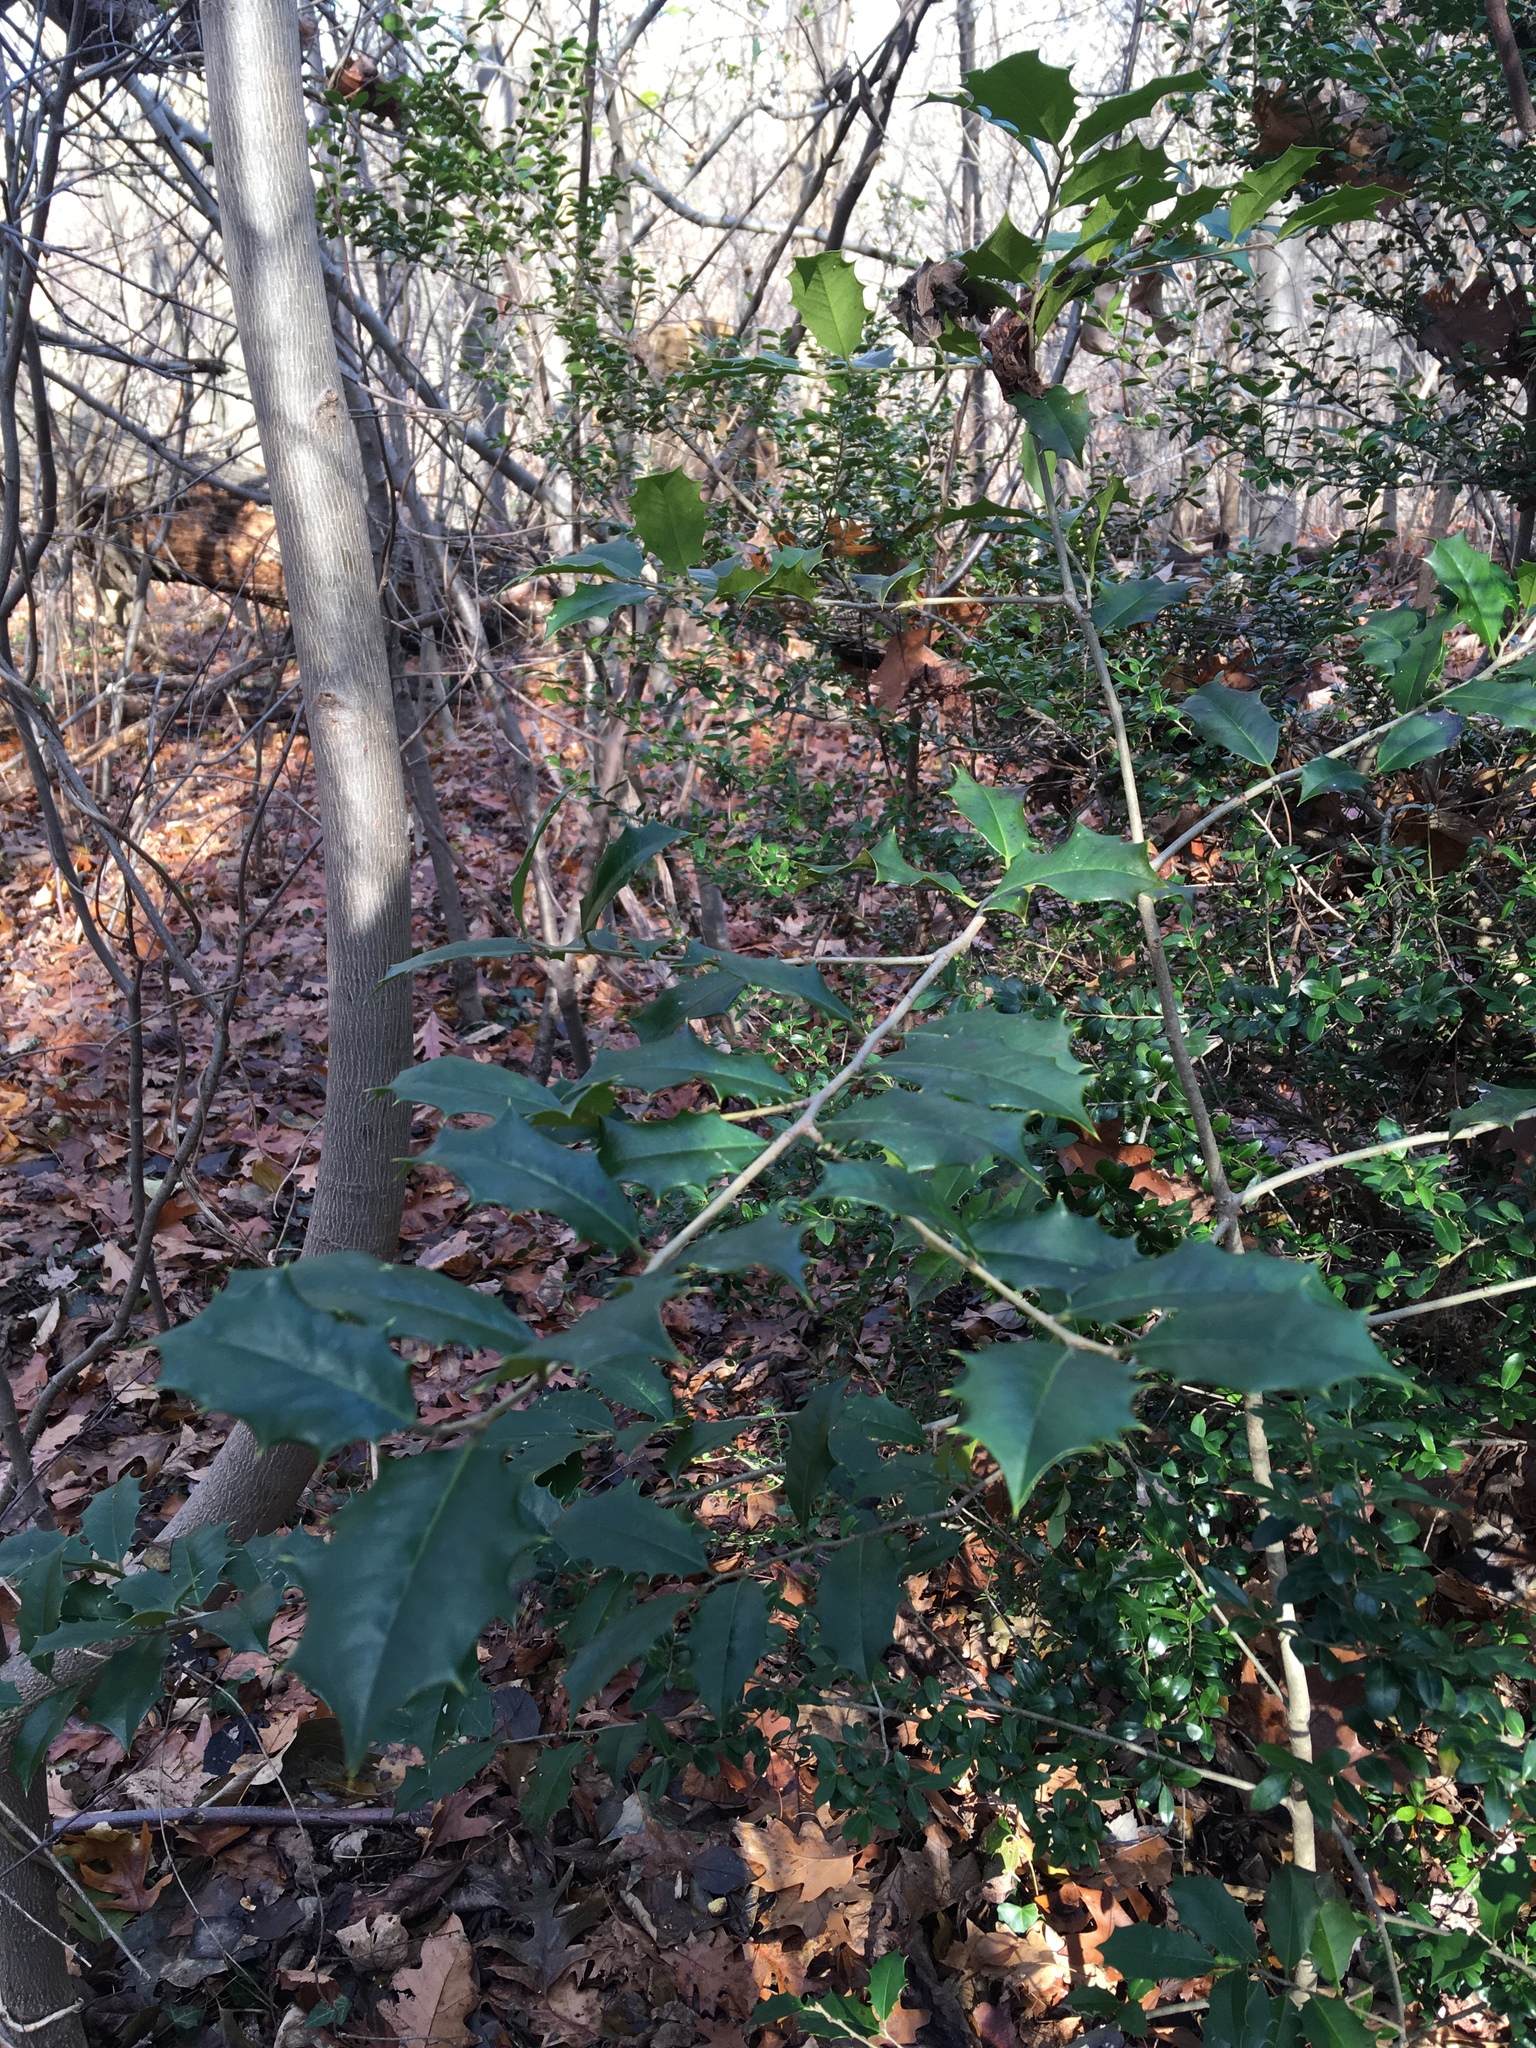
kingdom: Plantae
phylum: Tracheophyta
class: Magnoliopsida
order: Aquifoliales
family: Aquifoliaceae
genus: Ilex
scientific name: Ilex opaca
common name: American holly
